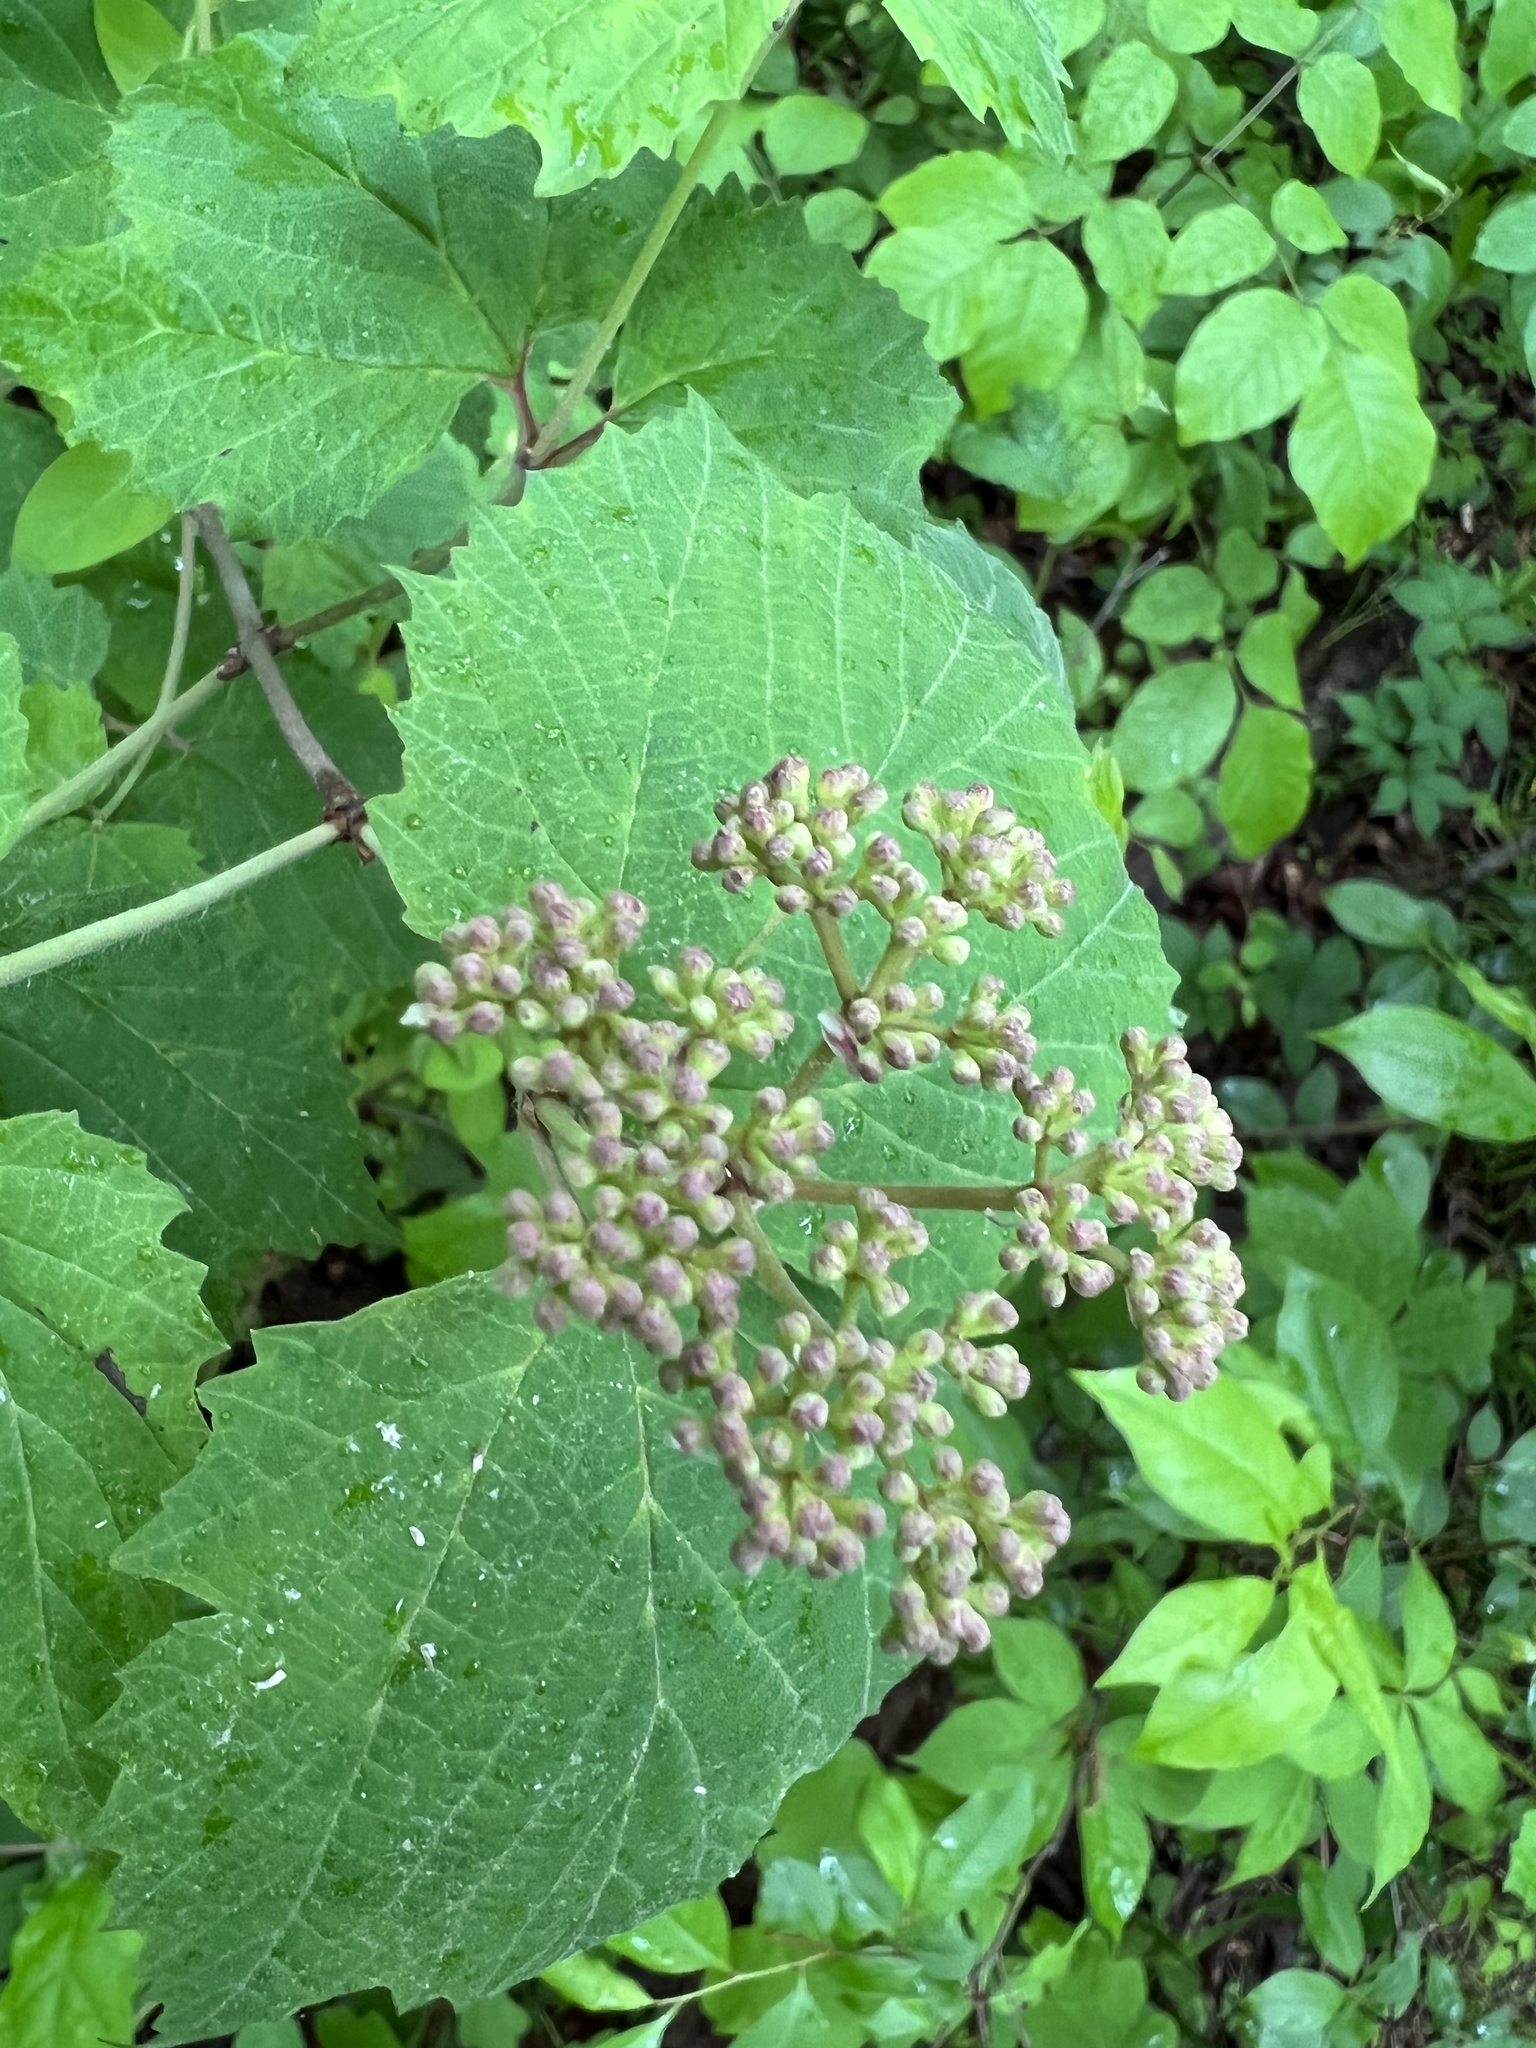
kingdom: Plantae
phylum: Tracheophyta
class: Magnoliopsida
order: Dipsacales
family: Viburnaceae
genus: Viburnum
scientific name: Viburnum acerifolium
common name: Dockmackie
